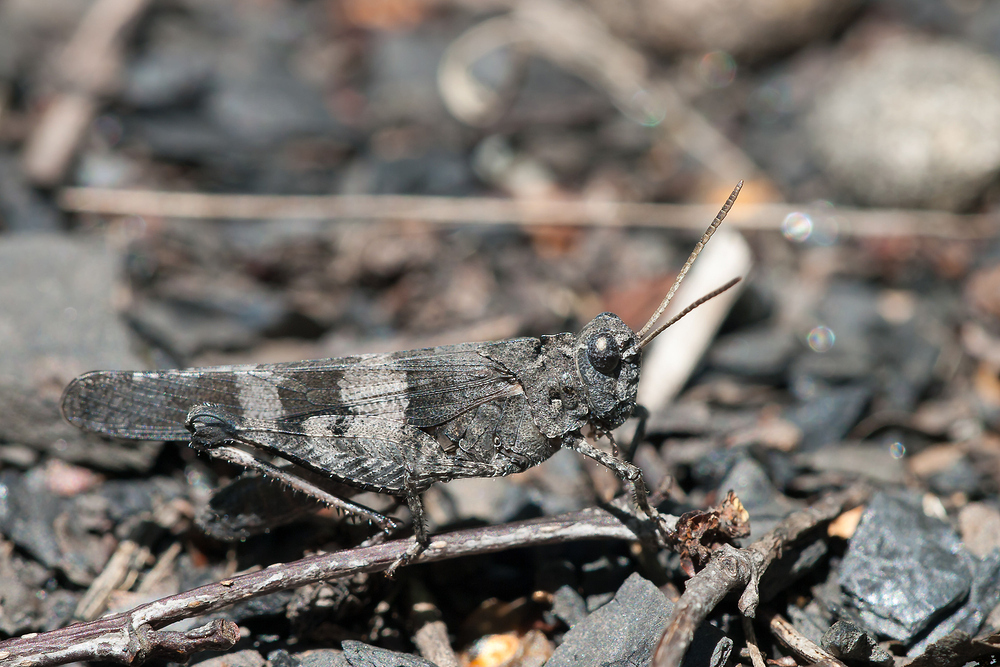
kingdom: Animalia
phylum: Arthropoda
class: Insecta
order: Orthoptera
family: Acrididae
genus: Oedipoda
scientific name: Oedipoda caerulescens
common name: Blue-winged grasshopper
